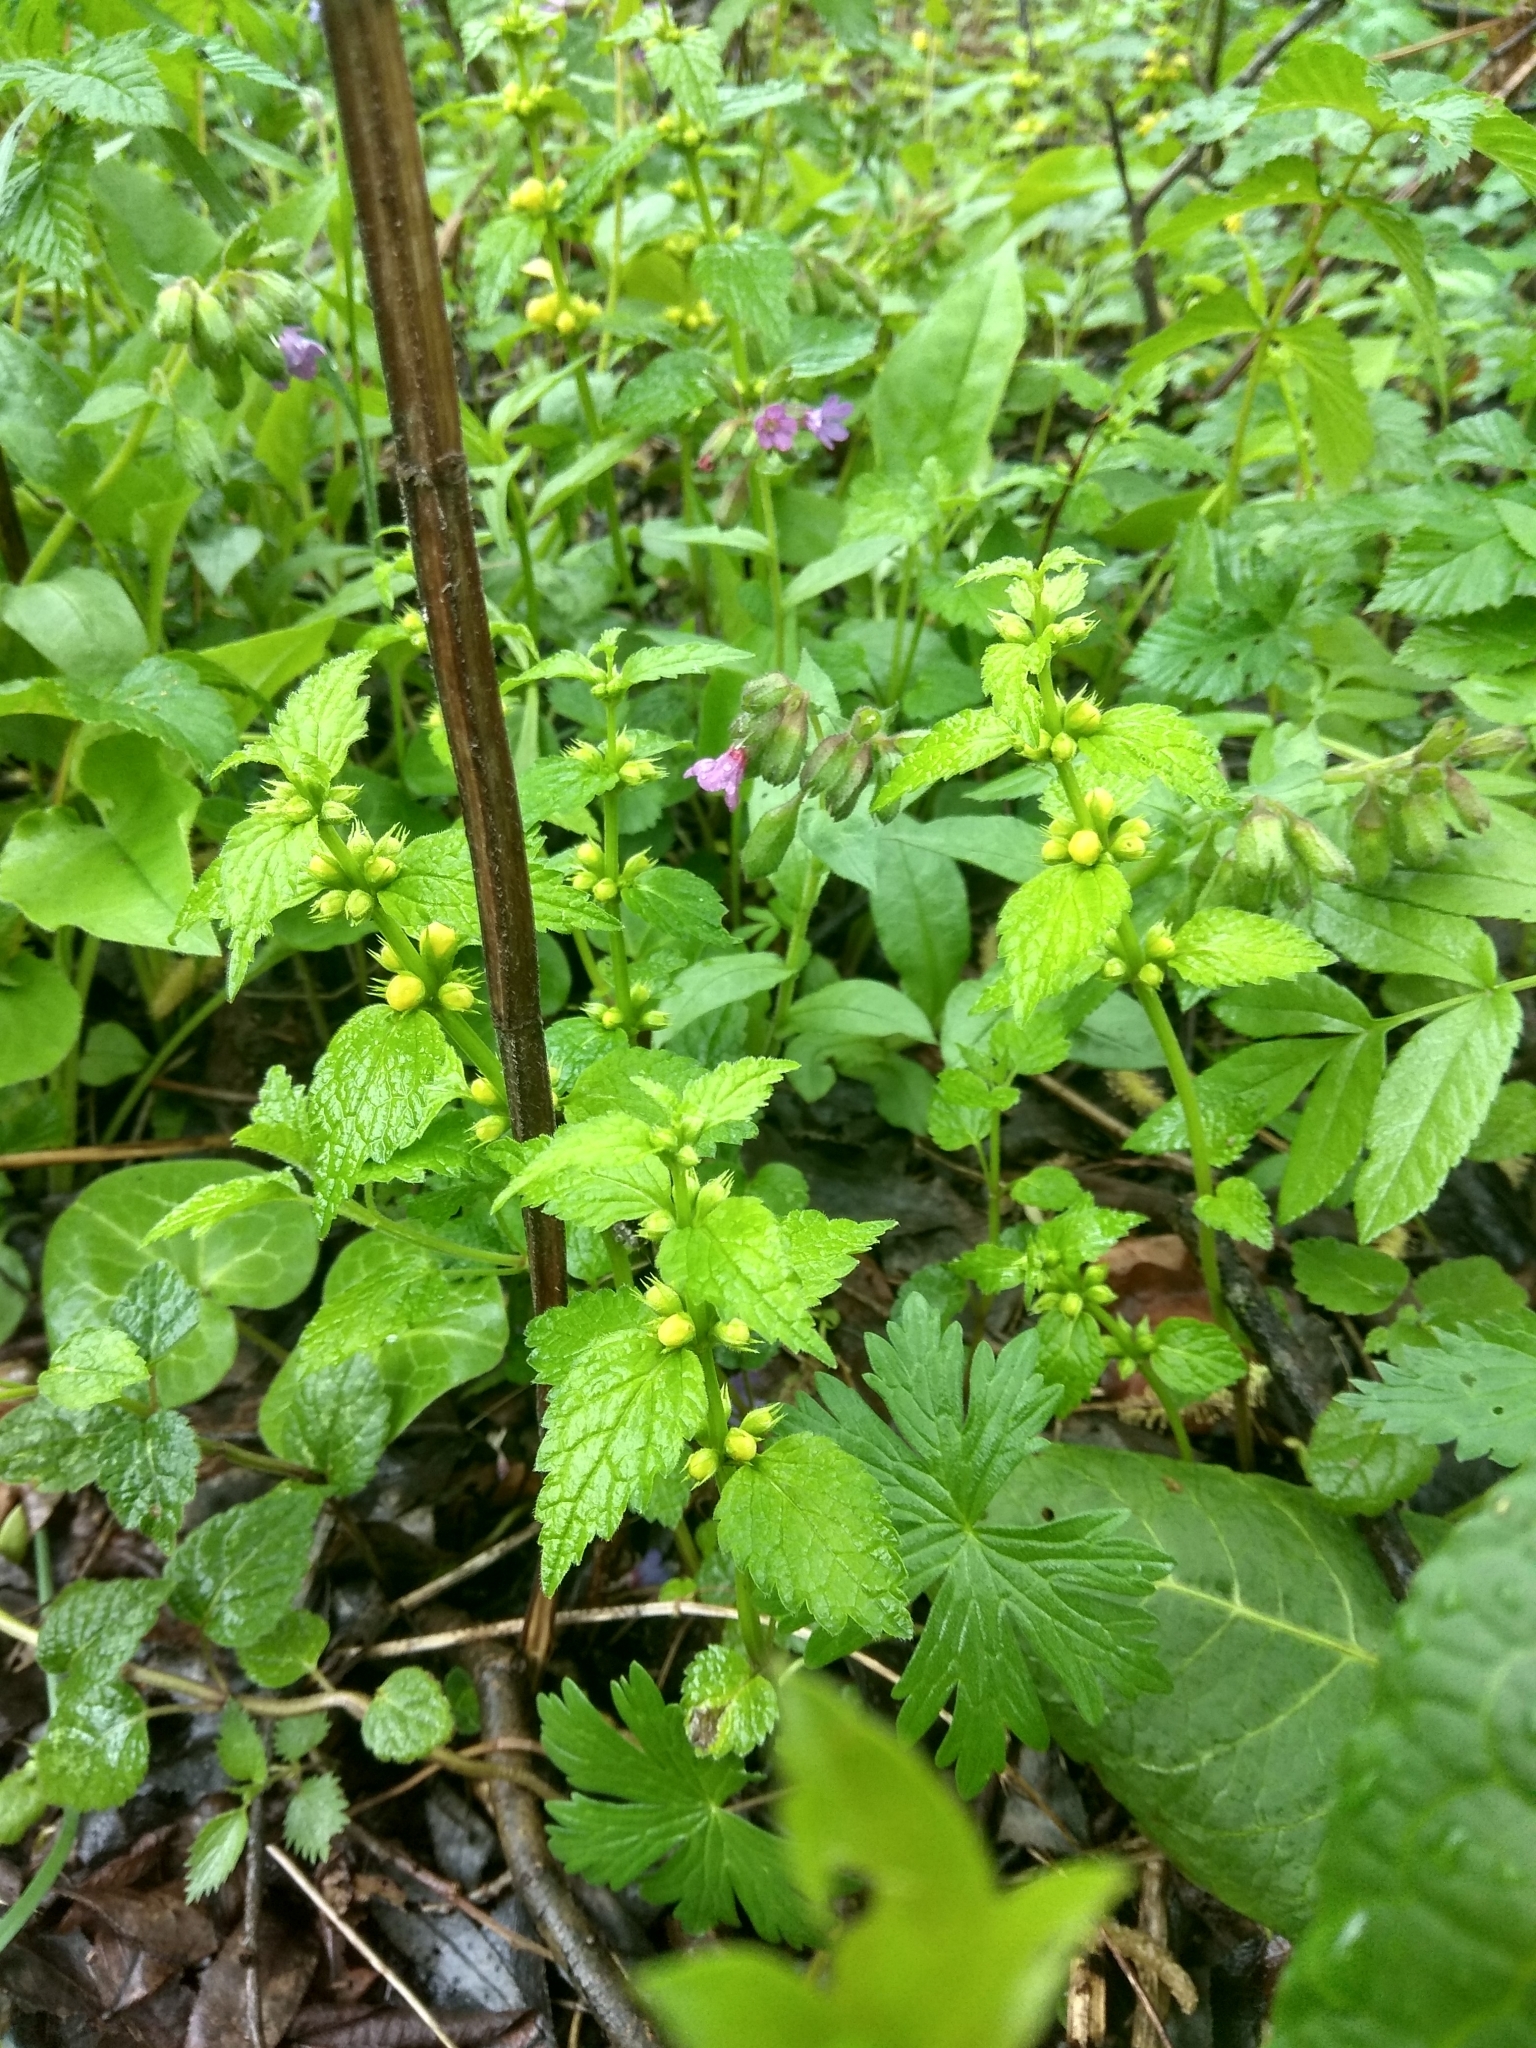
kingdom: Plantae
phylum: Tracheophyta
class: Magnoliopsida
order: Lamiales
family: Lamiaceae
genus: Lamium
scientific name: Lamium galeobdolon
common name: Yellow archangel
